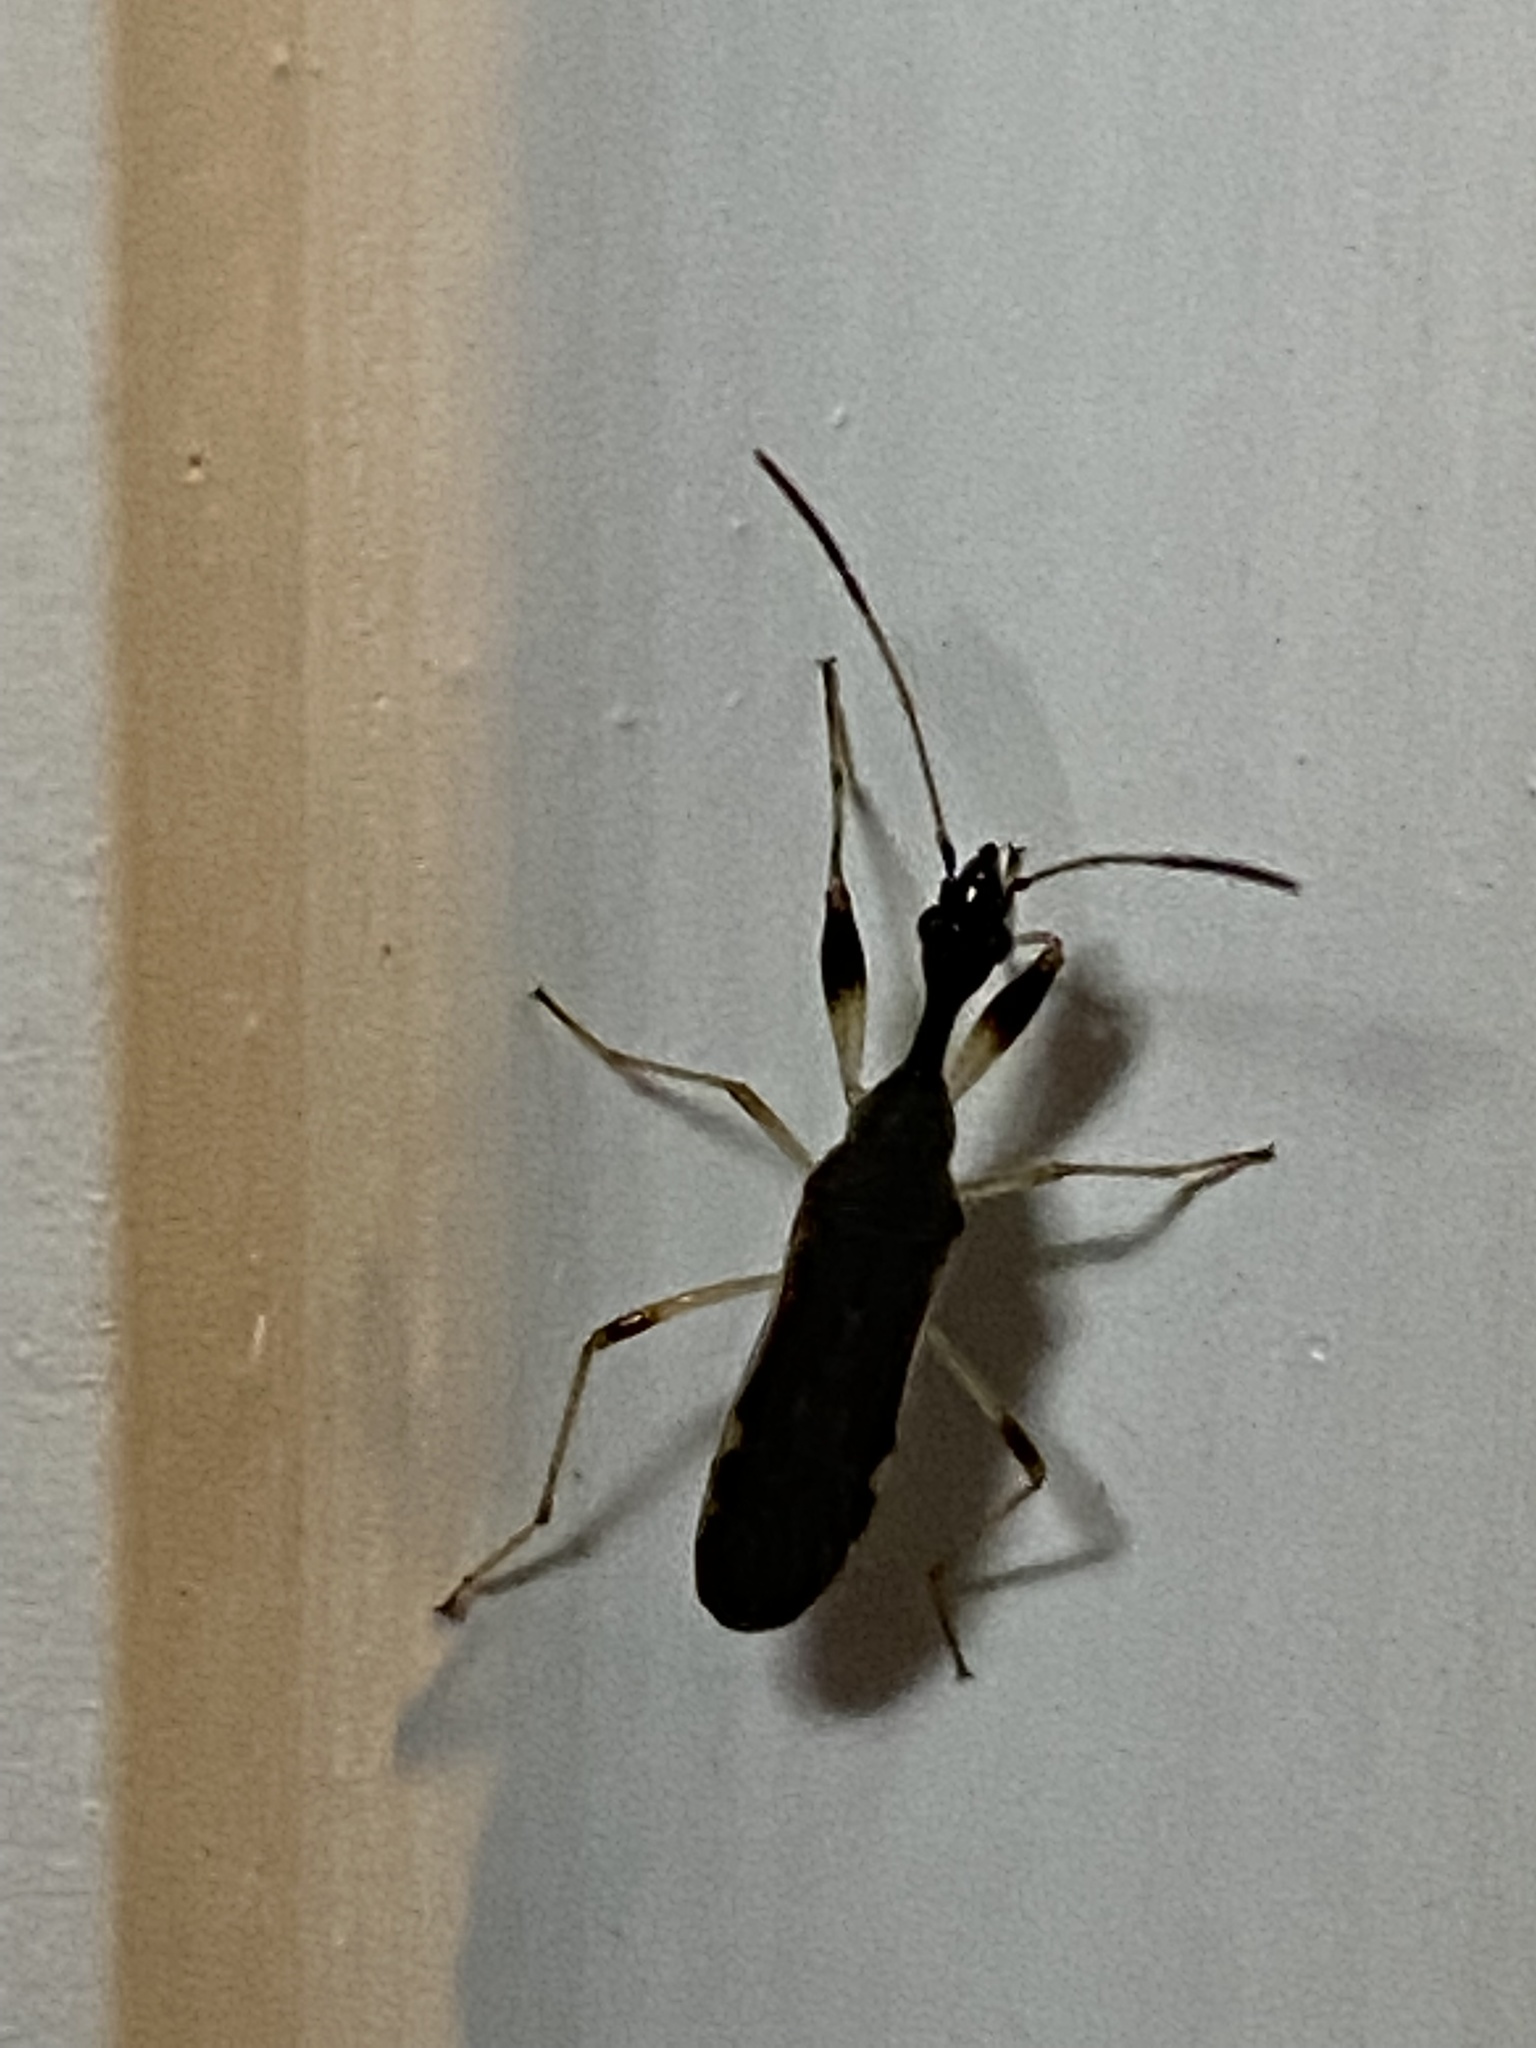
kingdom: Animalia
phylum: Arthropoda
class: Insecta
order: Hemiptera
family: Rhyparochromidae
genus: Myodocha
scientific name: Myodocha serripes
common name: Long-necked seed bug
